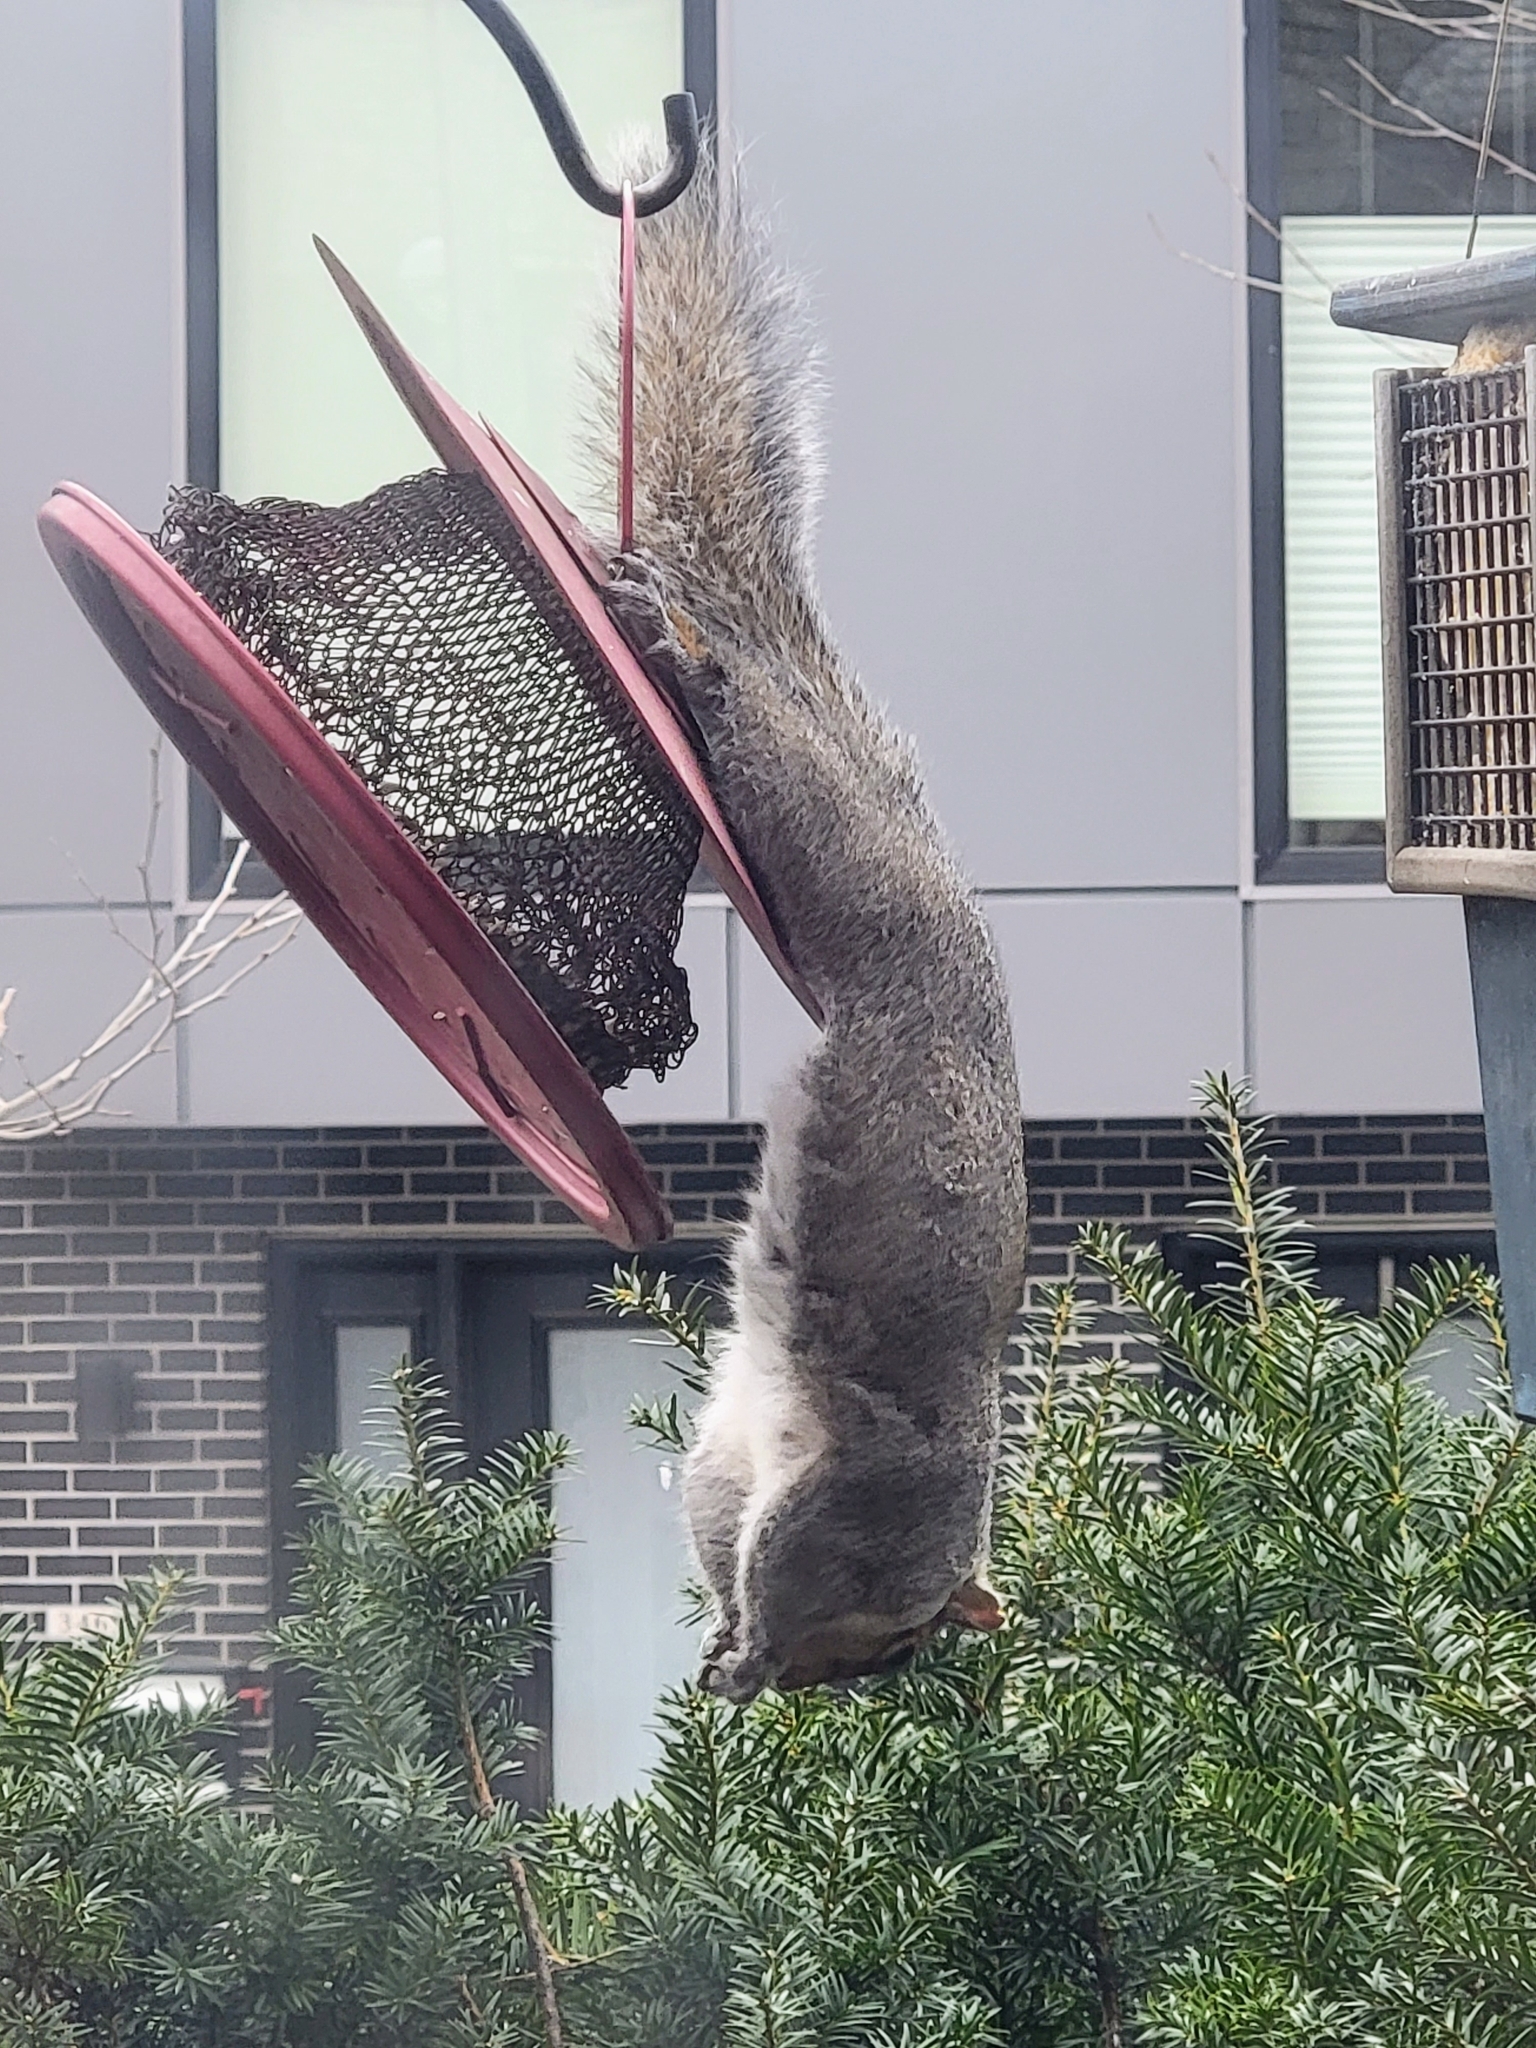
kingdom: Animalia
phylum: Chordata
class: Mammalia
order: Rodentia
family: Sciuridae
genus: Sciurus
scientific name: Sciurus carolinensis
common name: Eastern gray squirrel
